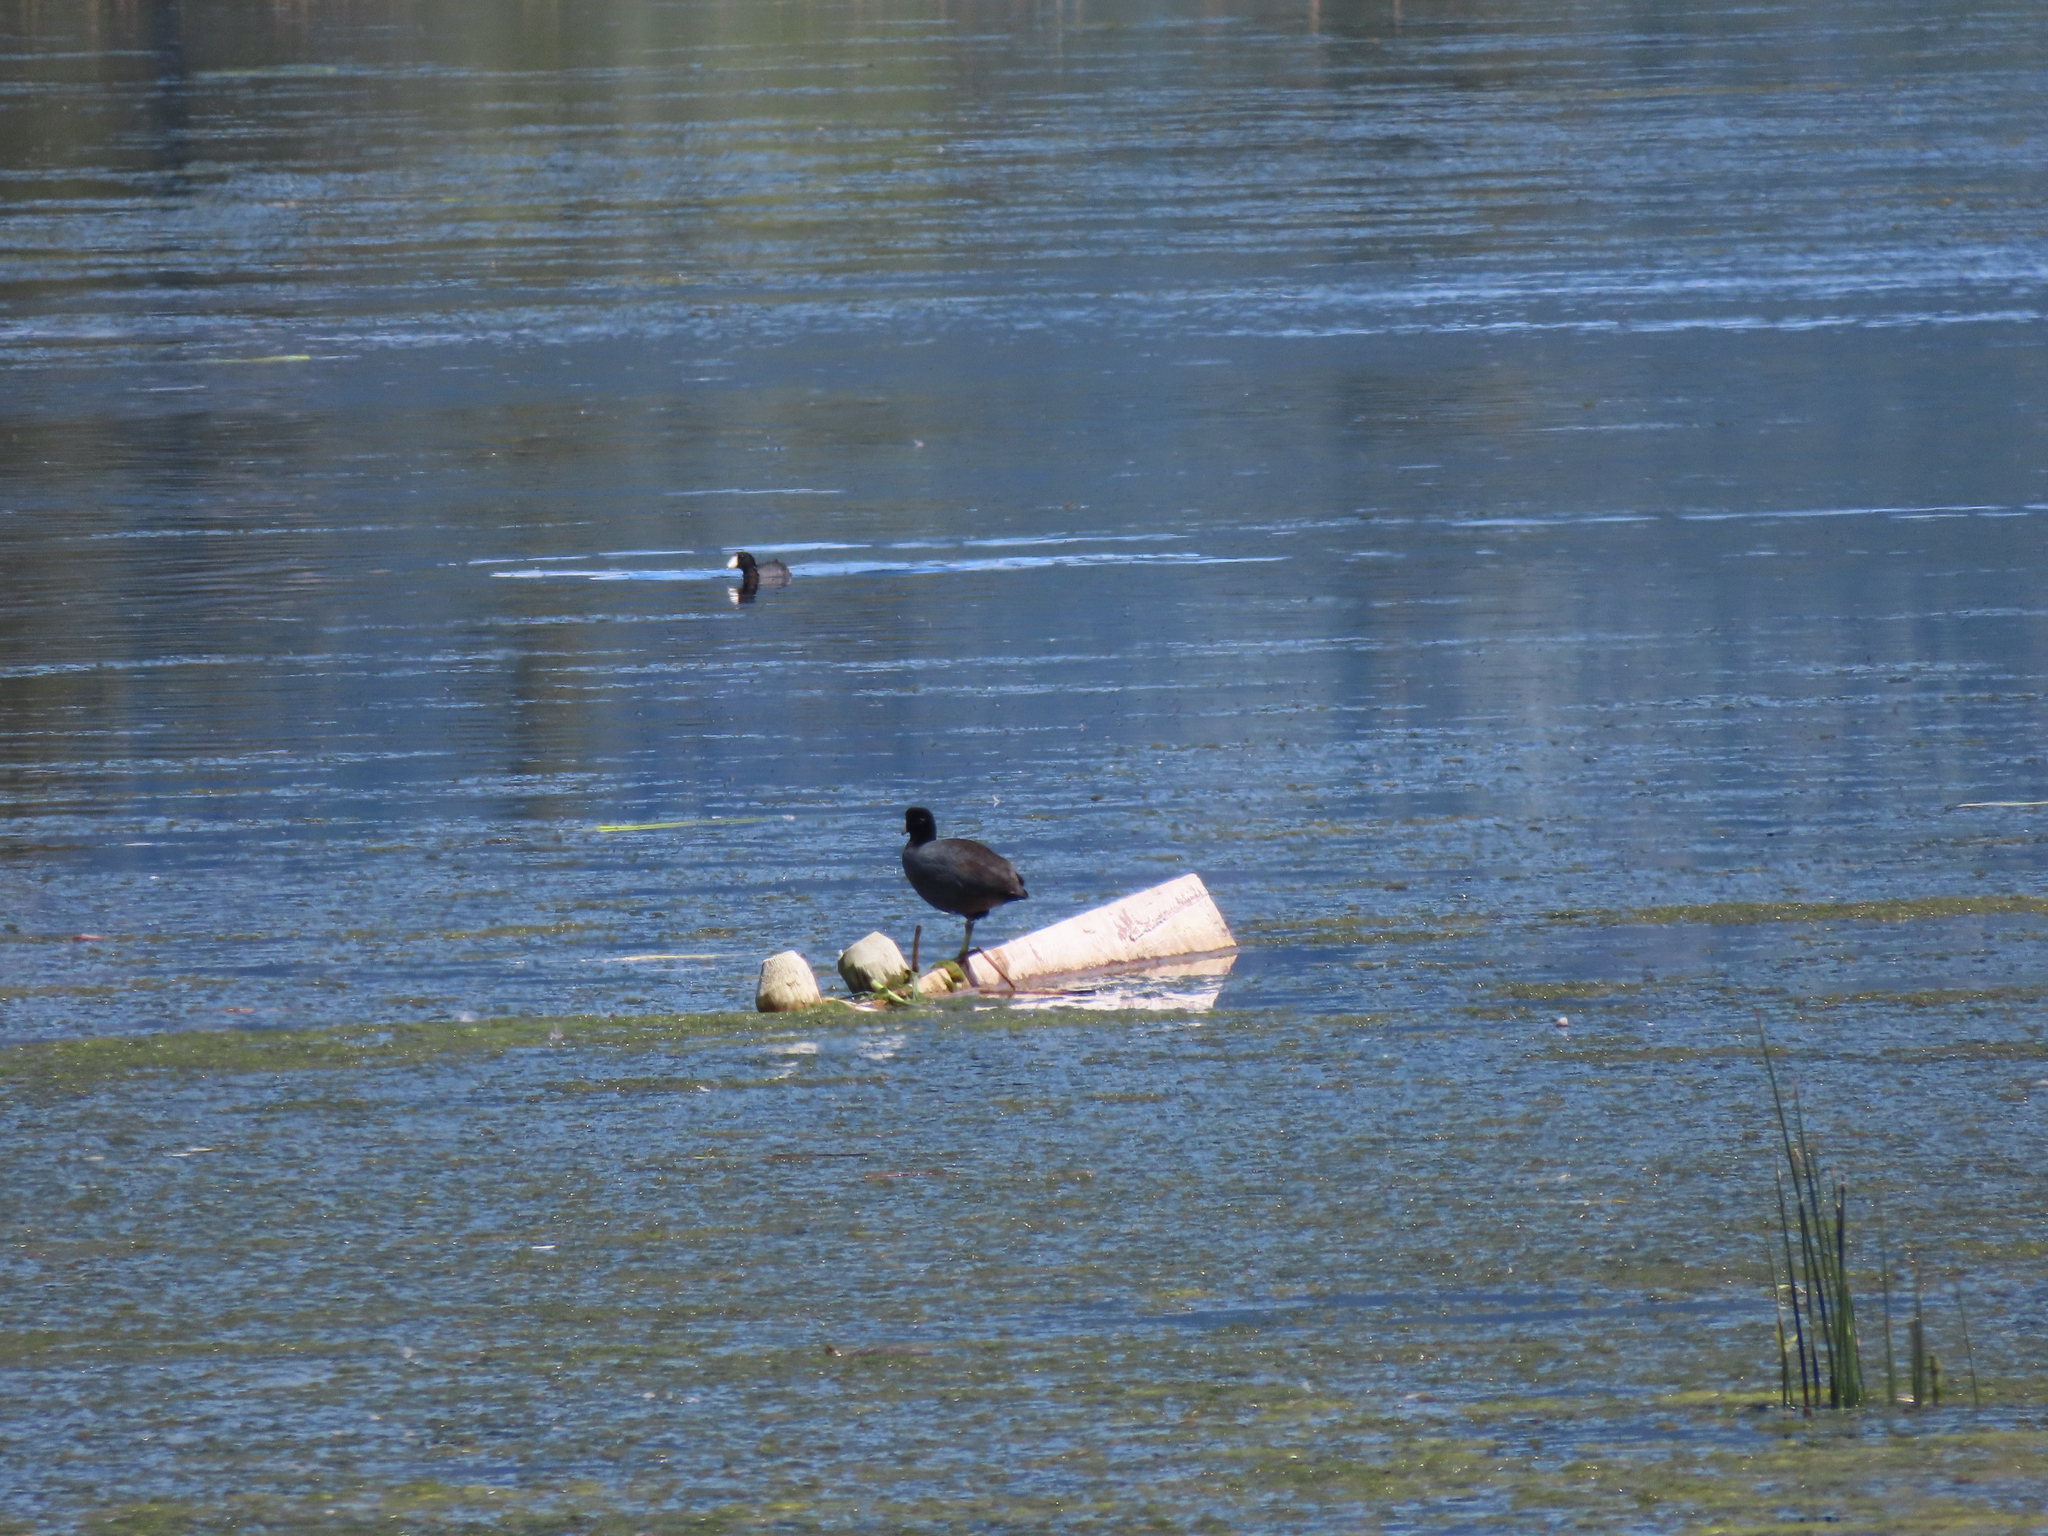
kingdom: Animalia
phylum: Chordata
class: Aves
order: Gruiformes
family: Rallidae
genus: Fulica
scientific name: Fulica americana
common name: American coot
